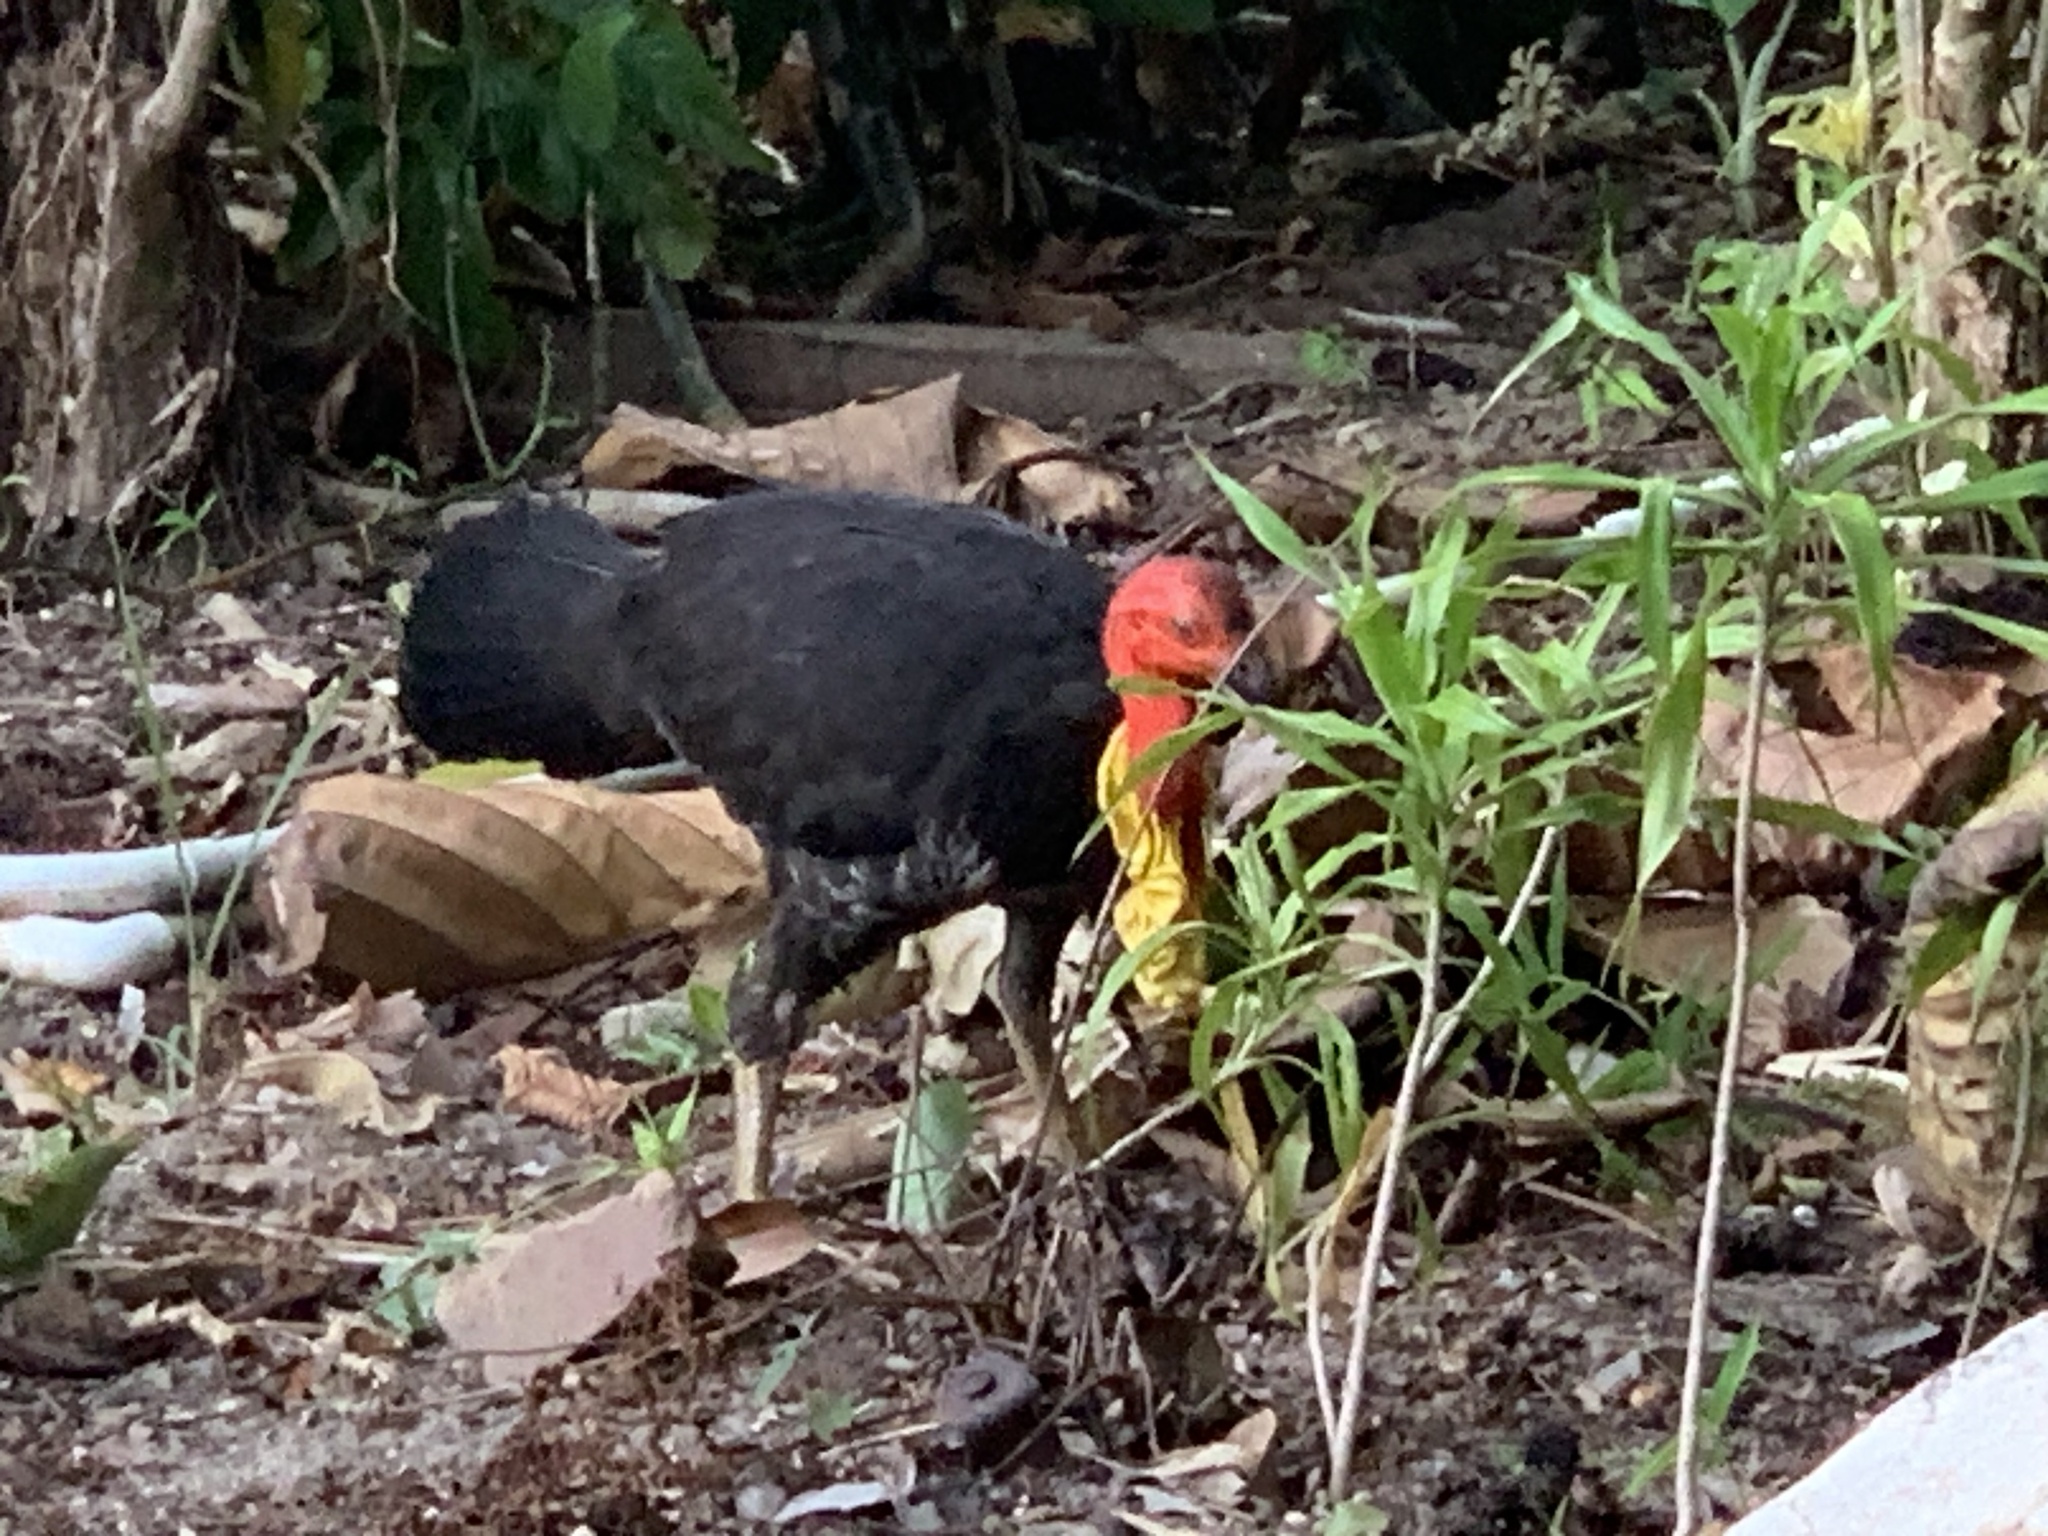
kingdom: Animalia
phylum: Chordata
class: Aves
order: Galliformes
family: Megapodiidae
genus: Alectura
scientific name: Alectura lathami
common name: Australian brushturkey
